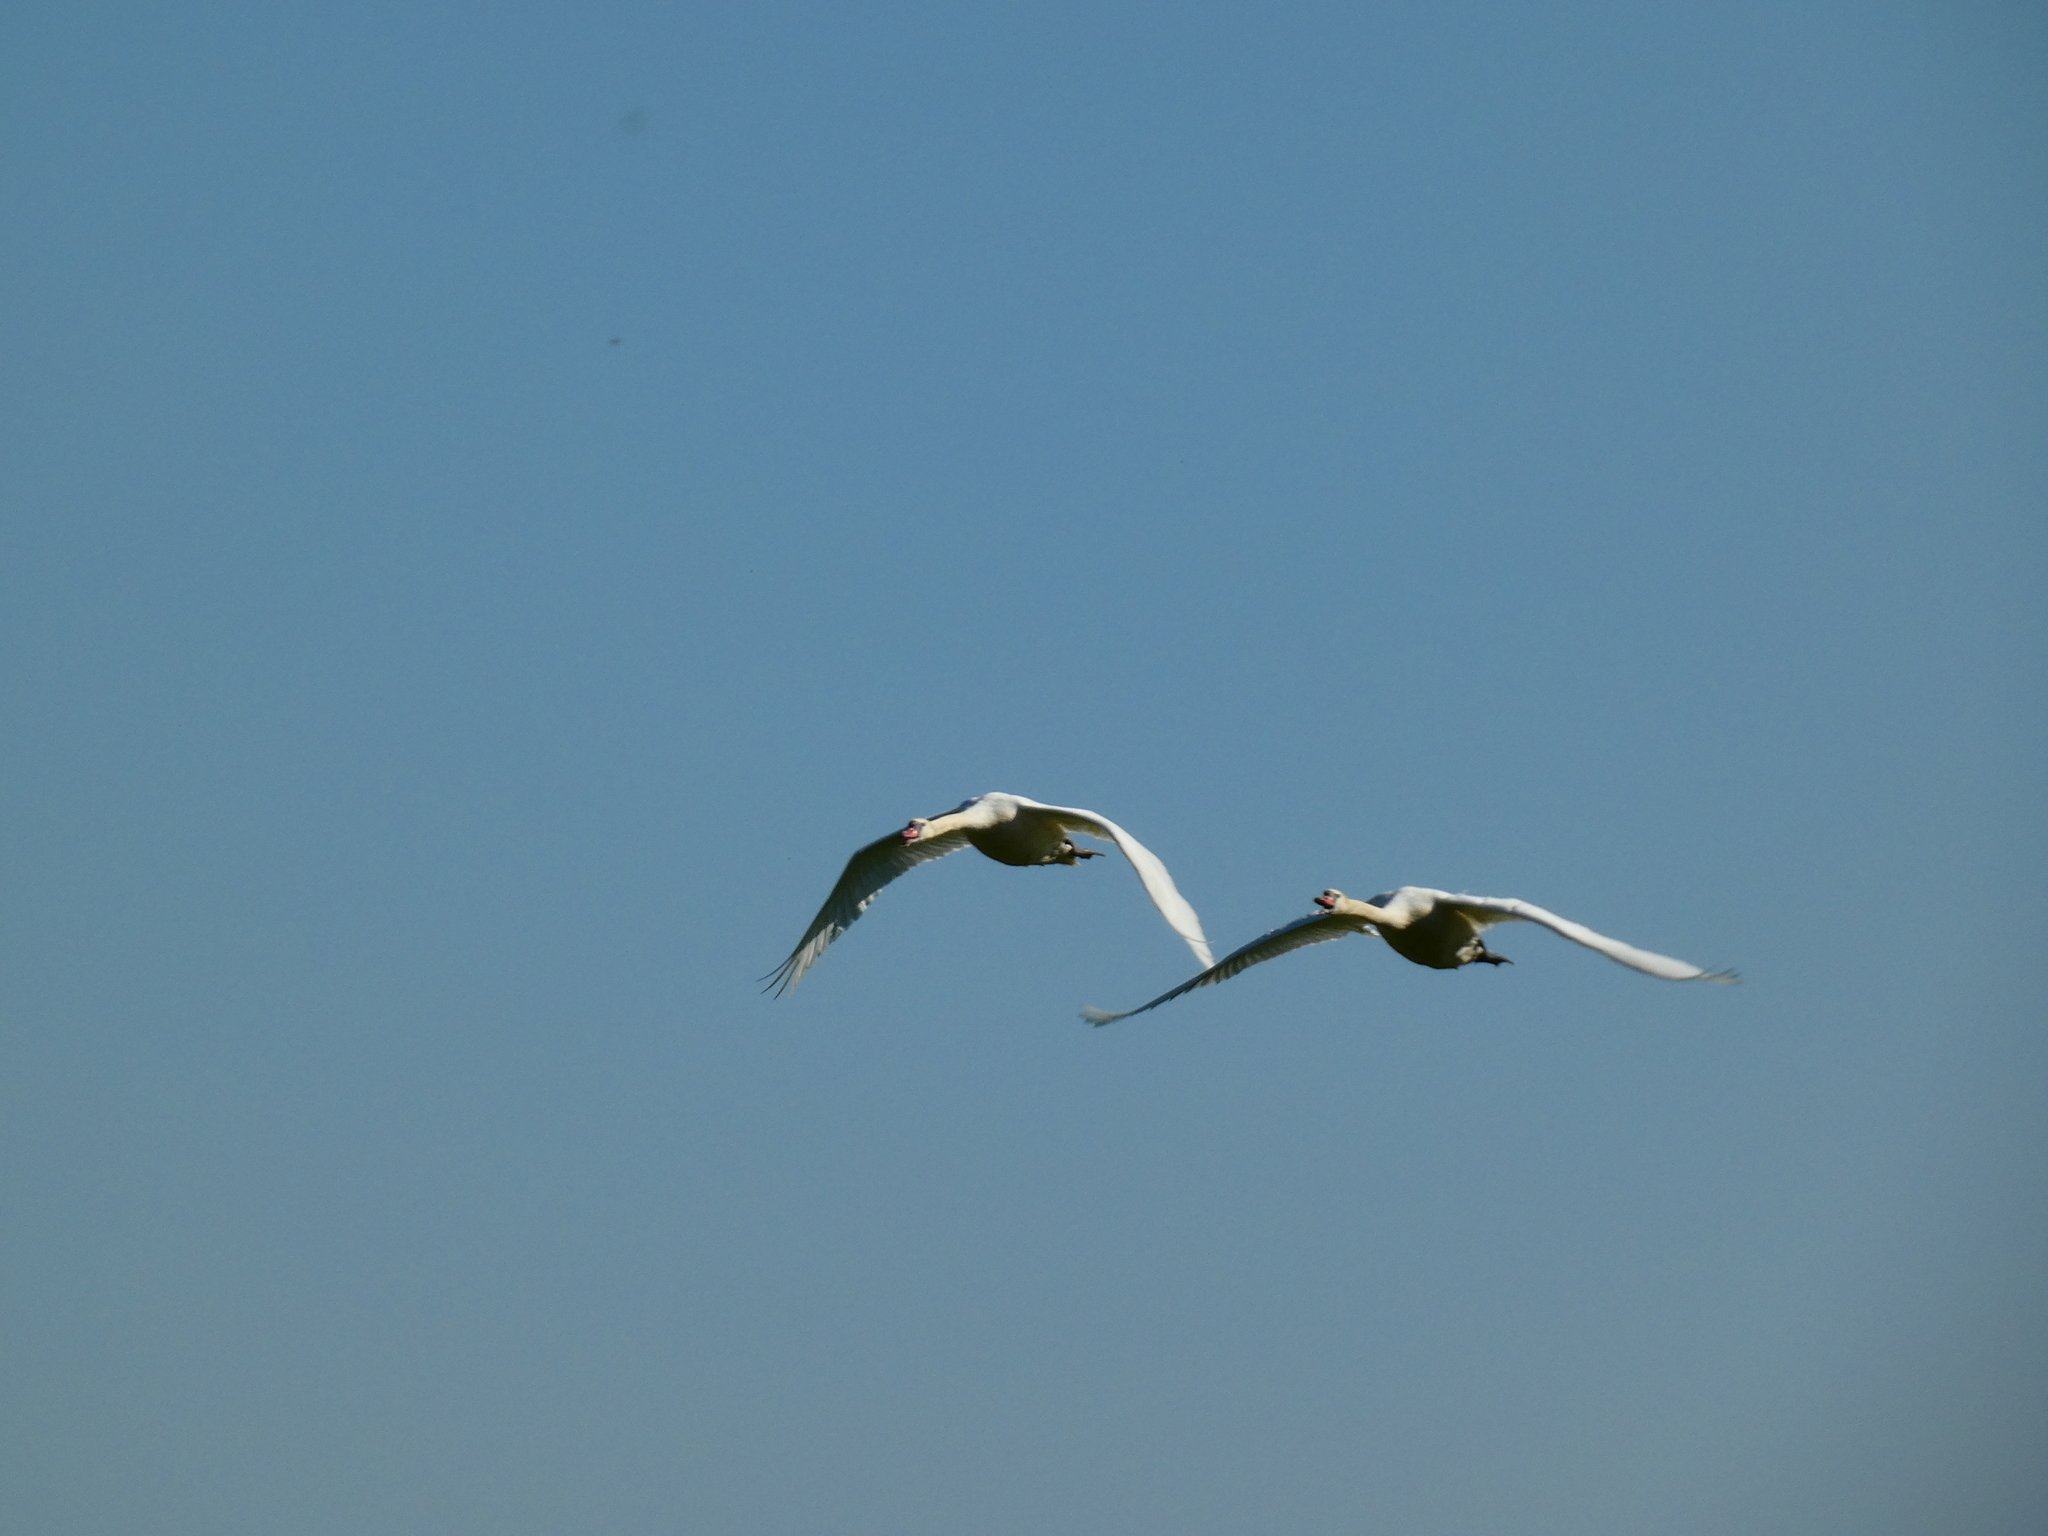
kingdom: Animalia
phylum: Chordata
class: Aves
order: Anseriformes
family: Anatidae
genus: Cygnus
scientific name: Cygnus olor
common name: Mute swan
